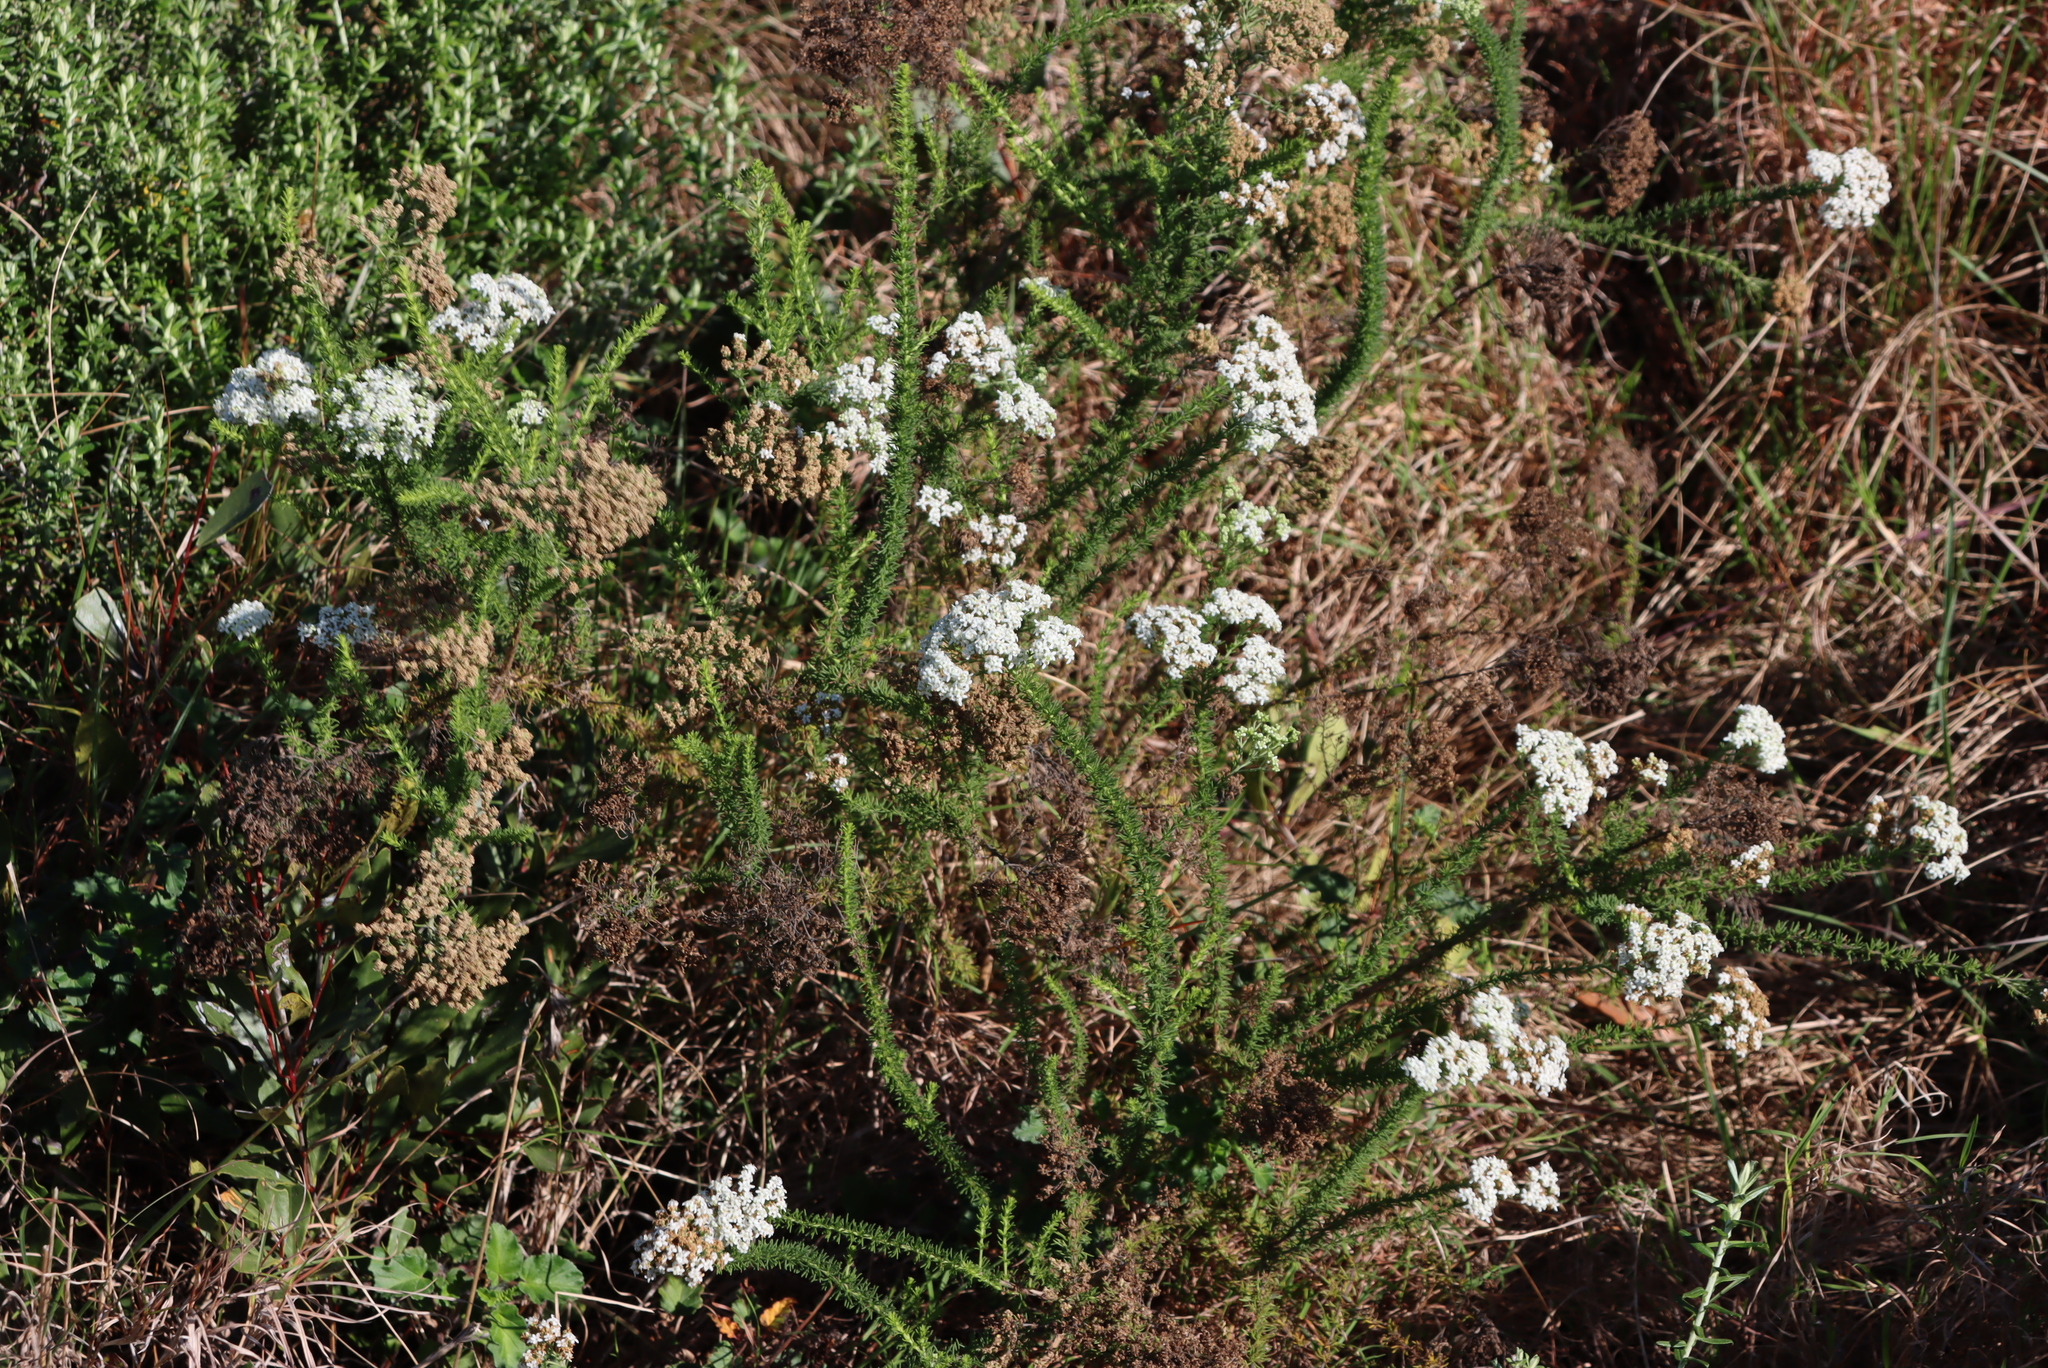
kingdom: Plantae
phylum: Tracheophyta
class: Magnoliopsida
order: Lamiales
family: Scrophulariaceae
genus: Selago
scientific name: Selago corymbosa
